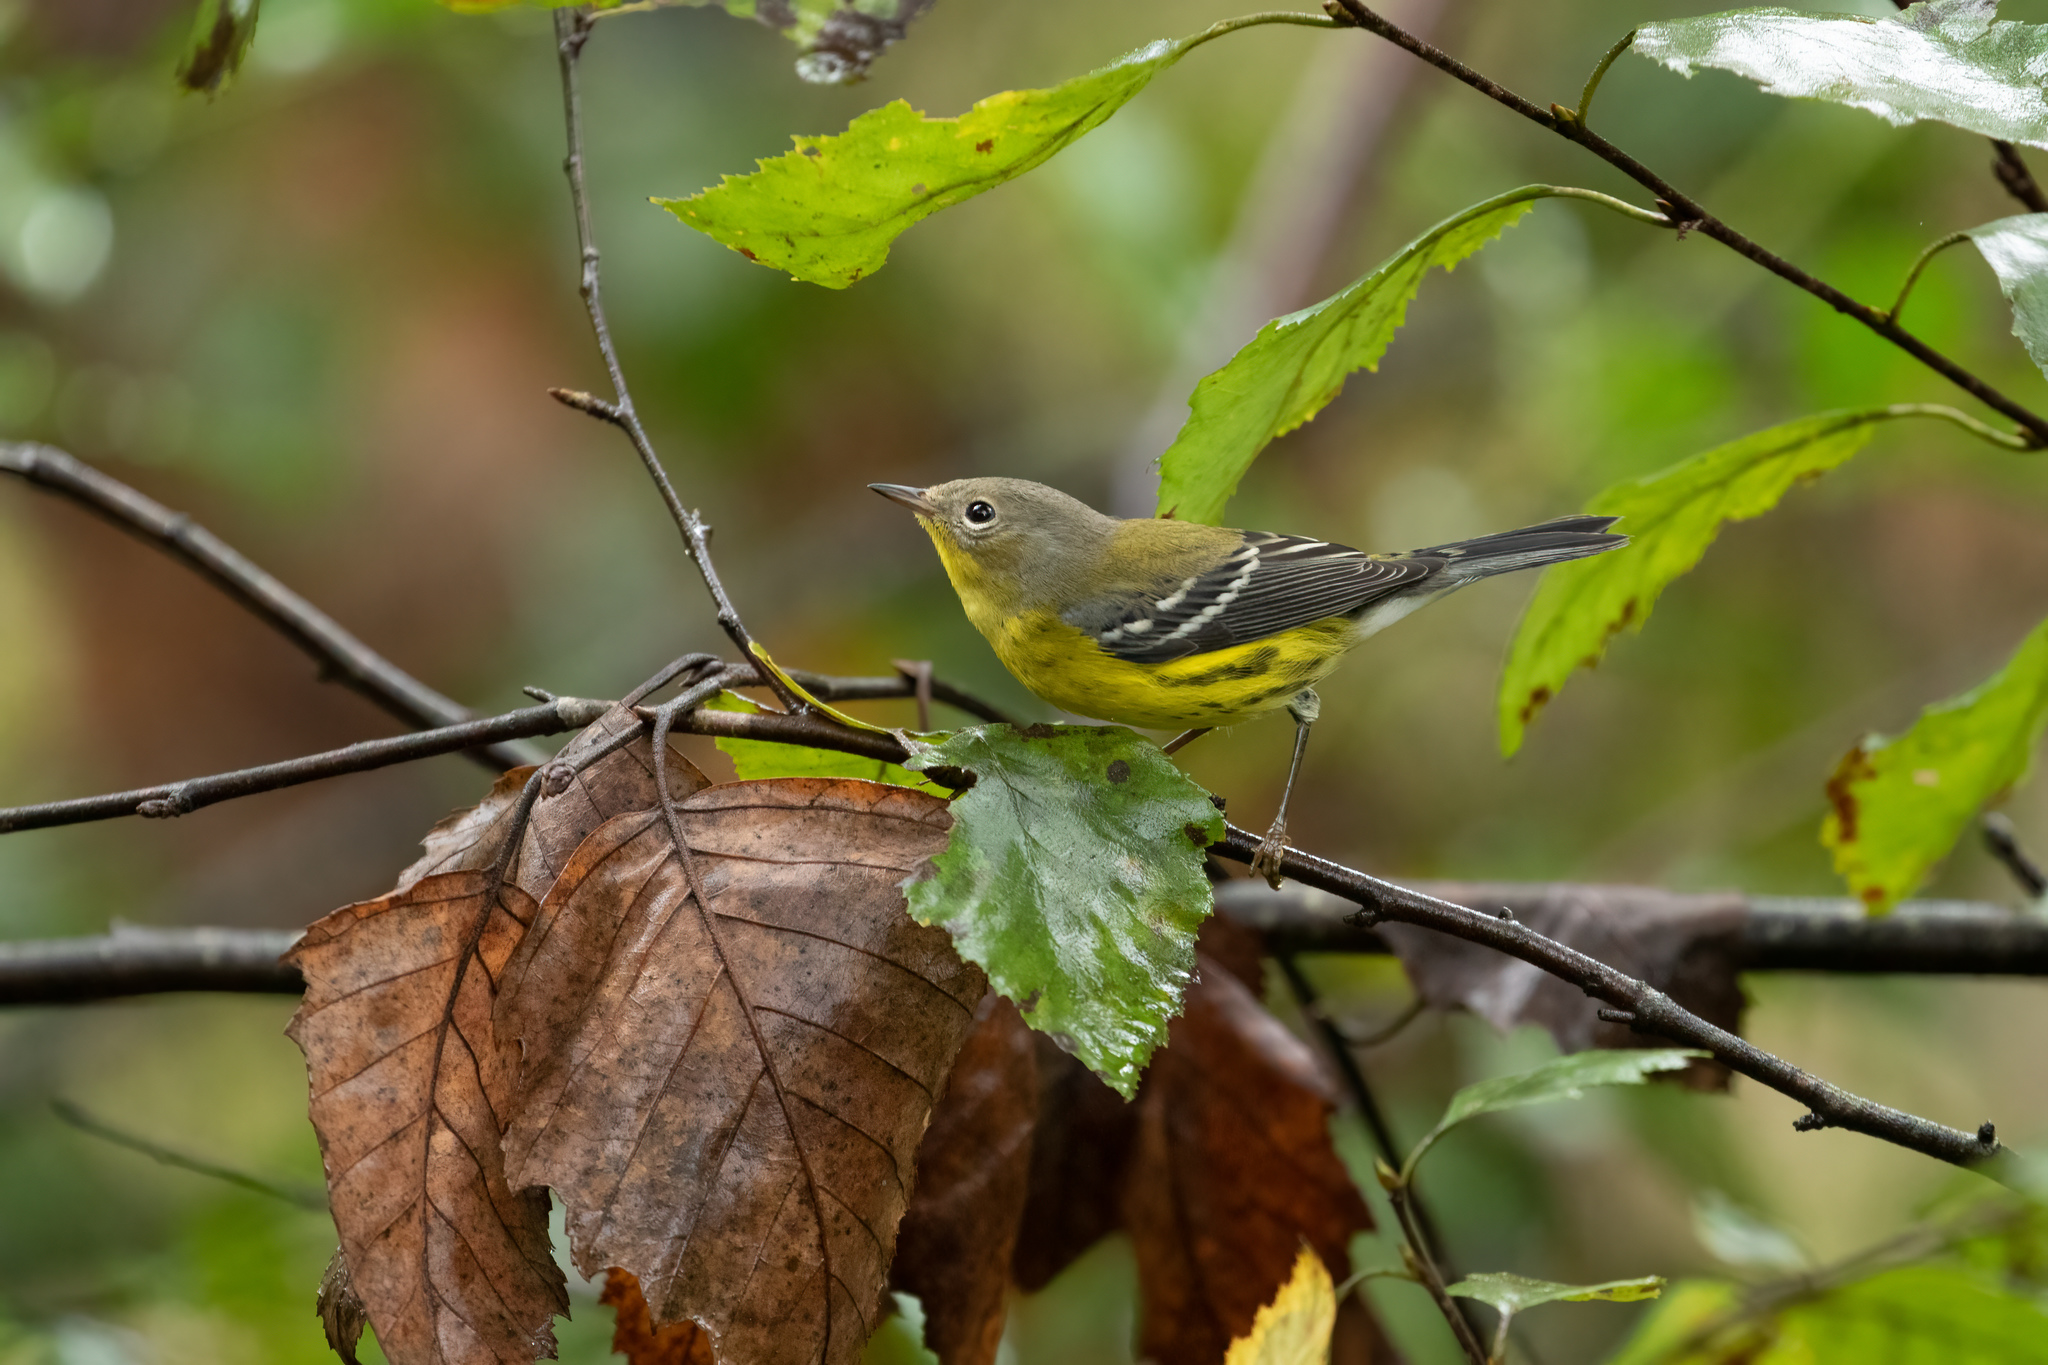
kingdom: Animalia
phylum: Chordata
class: Aves
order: Passeriformes
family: Parulidae
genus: Setophaga
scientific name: Setophaga magnolia
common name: Magnolia warbler
